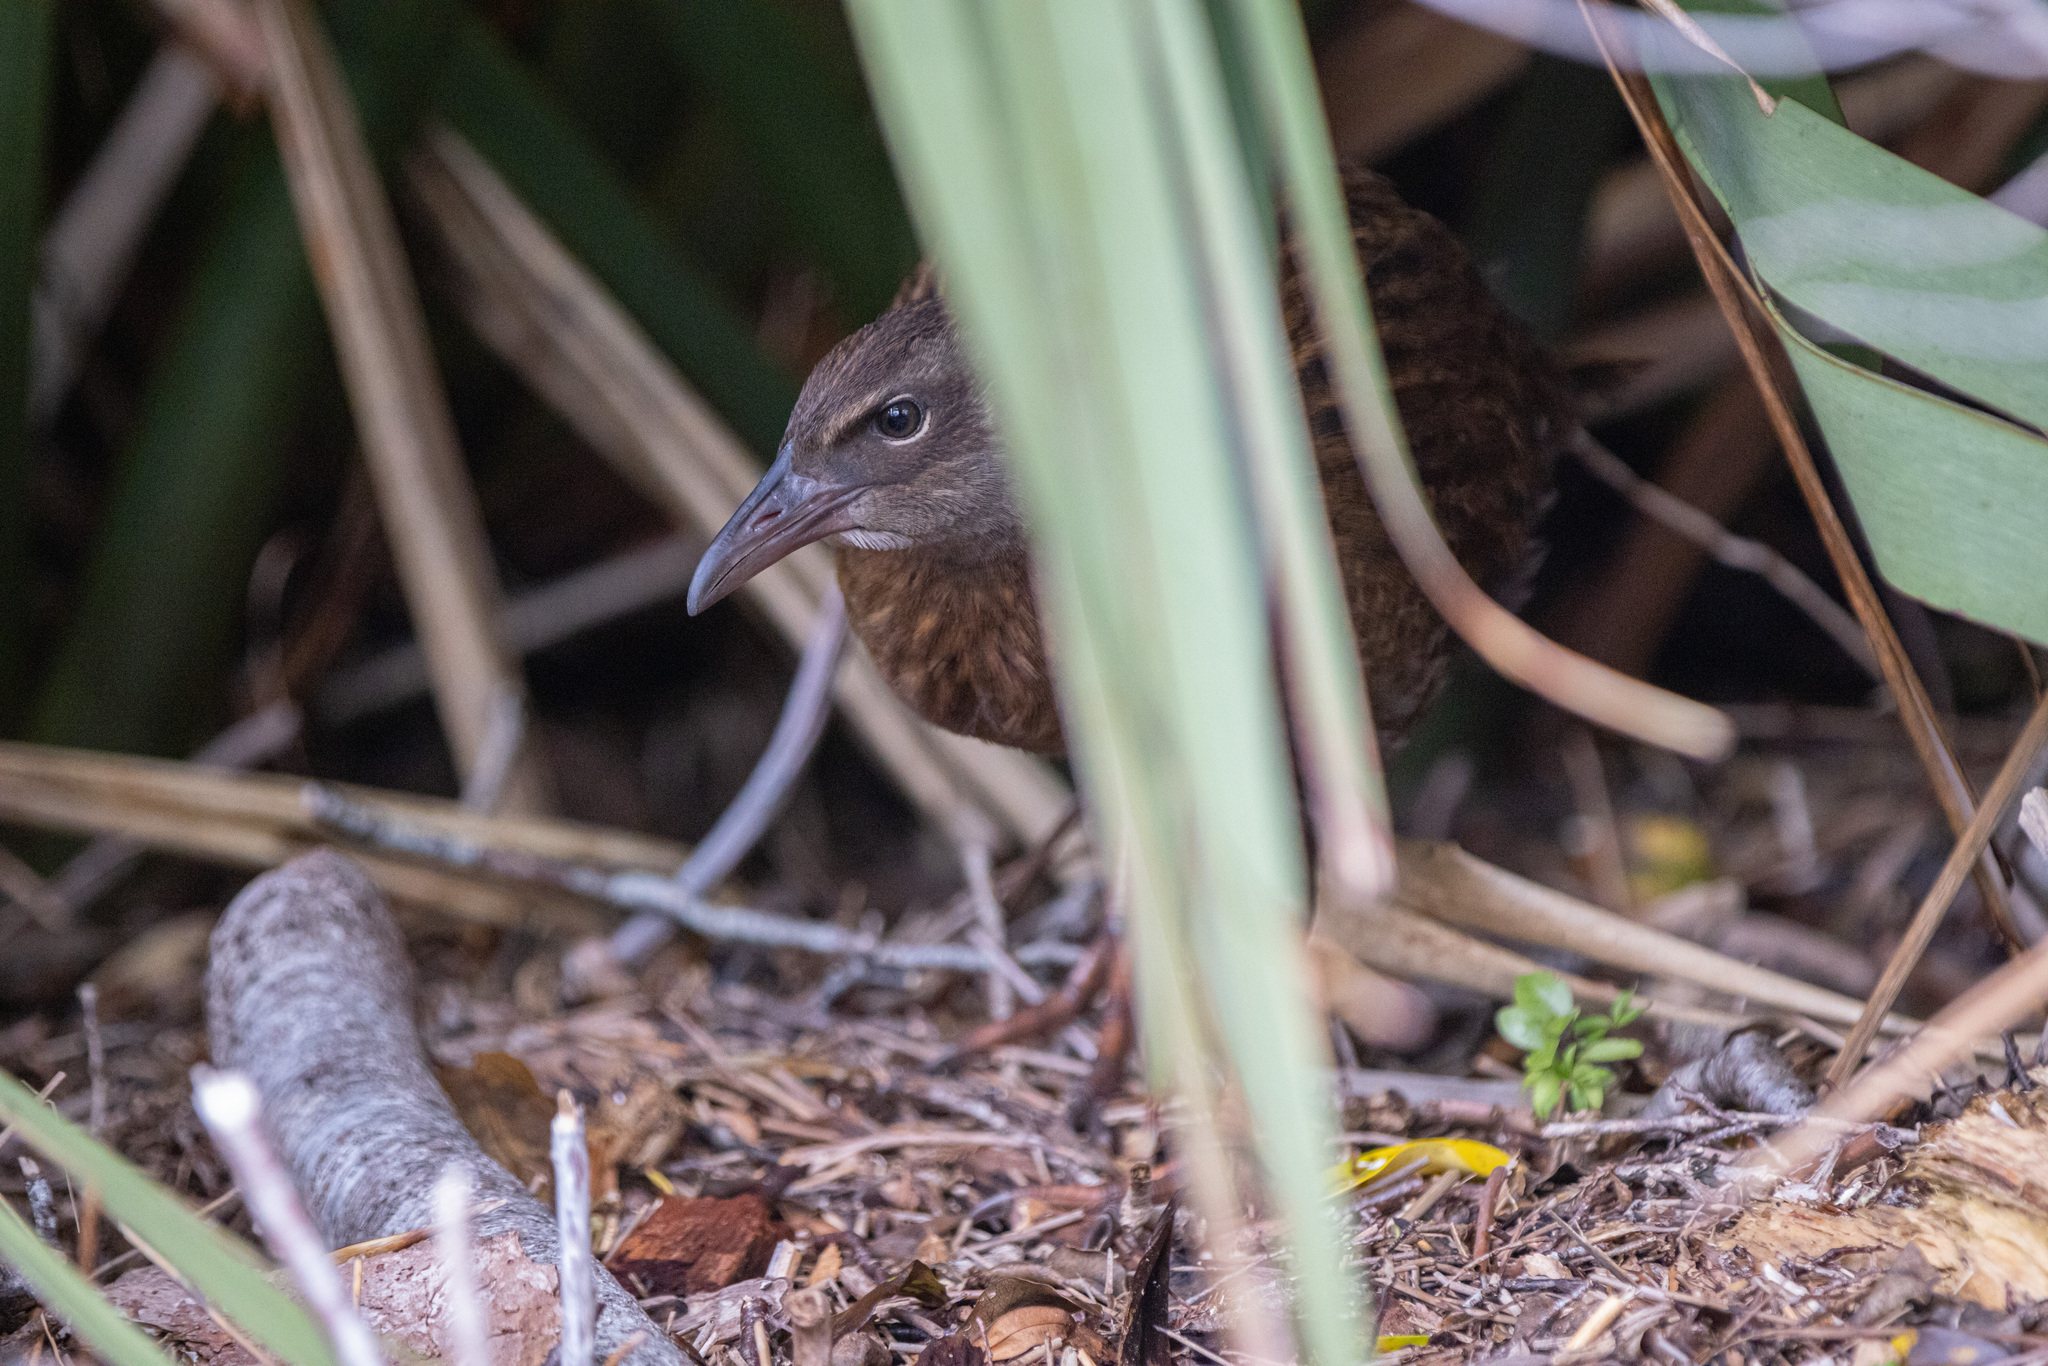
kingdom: Animalia
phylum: Chordata
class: Aves
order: Gruiformes
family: Rallidae
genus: Gallirallus
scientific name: Gallirallus australis
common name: Weka
